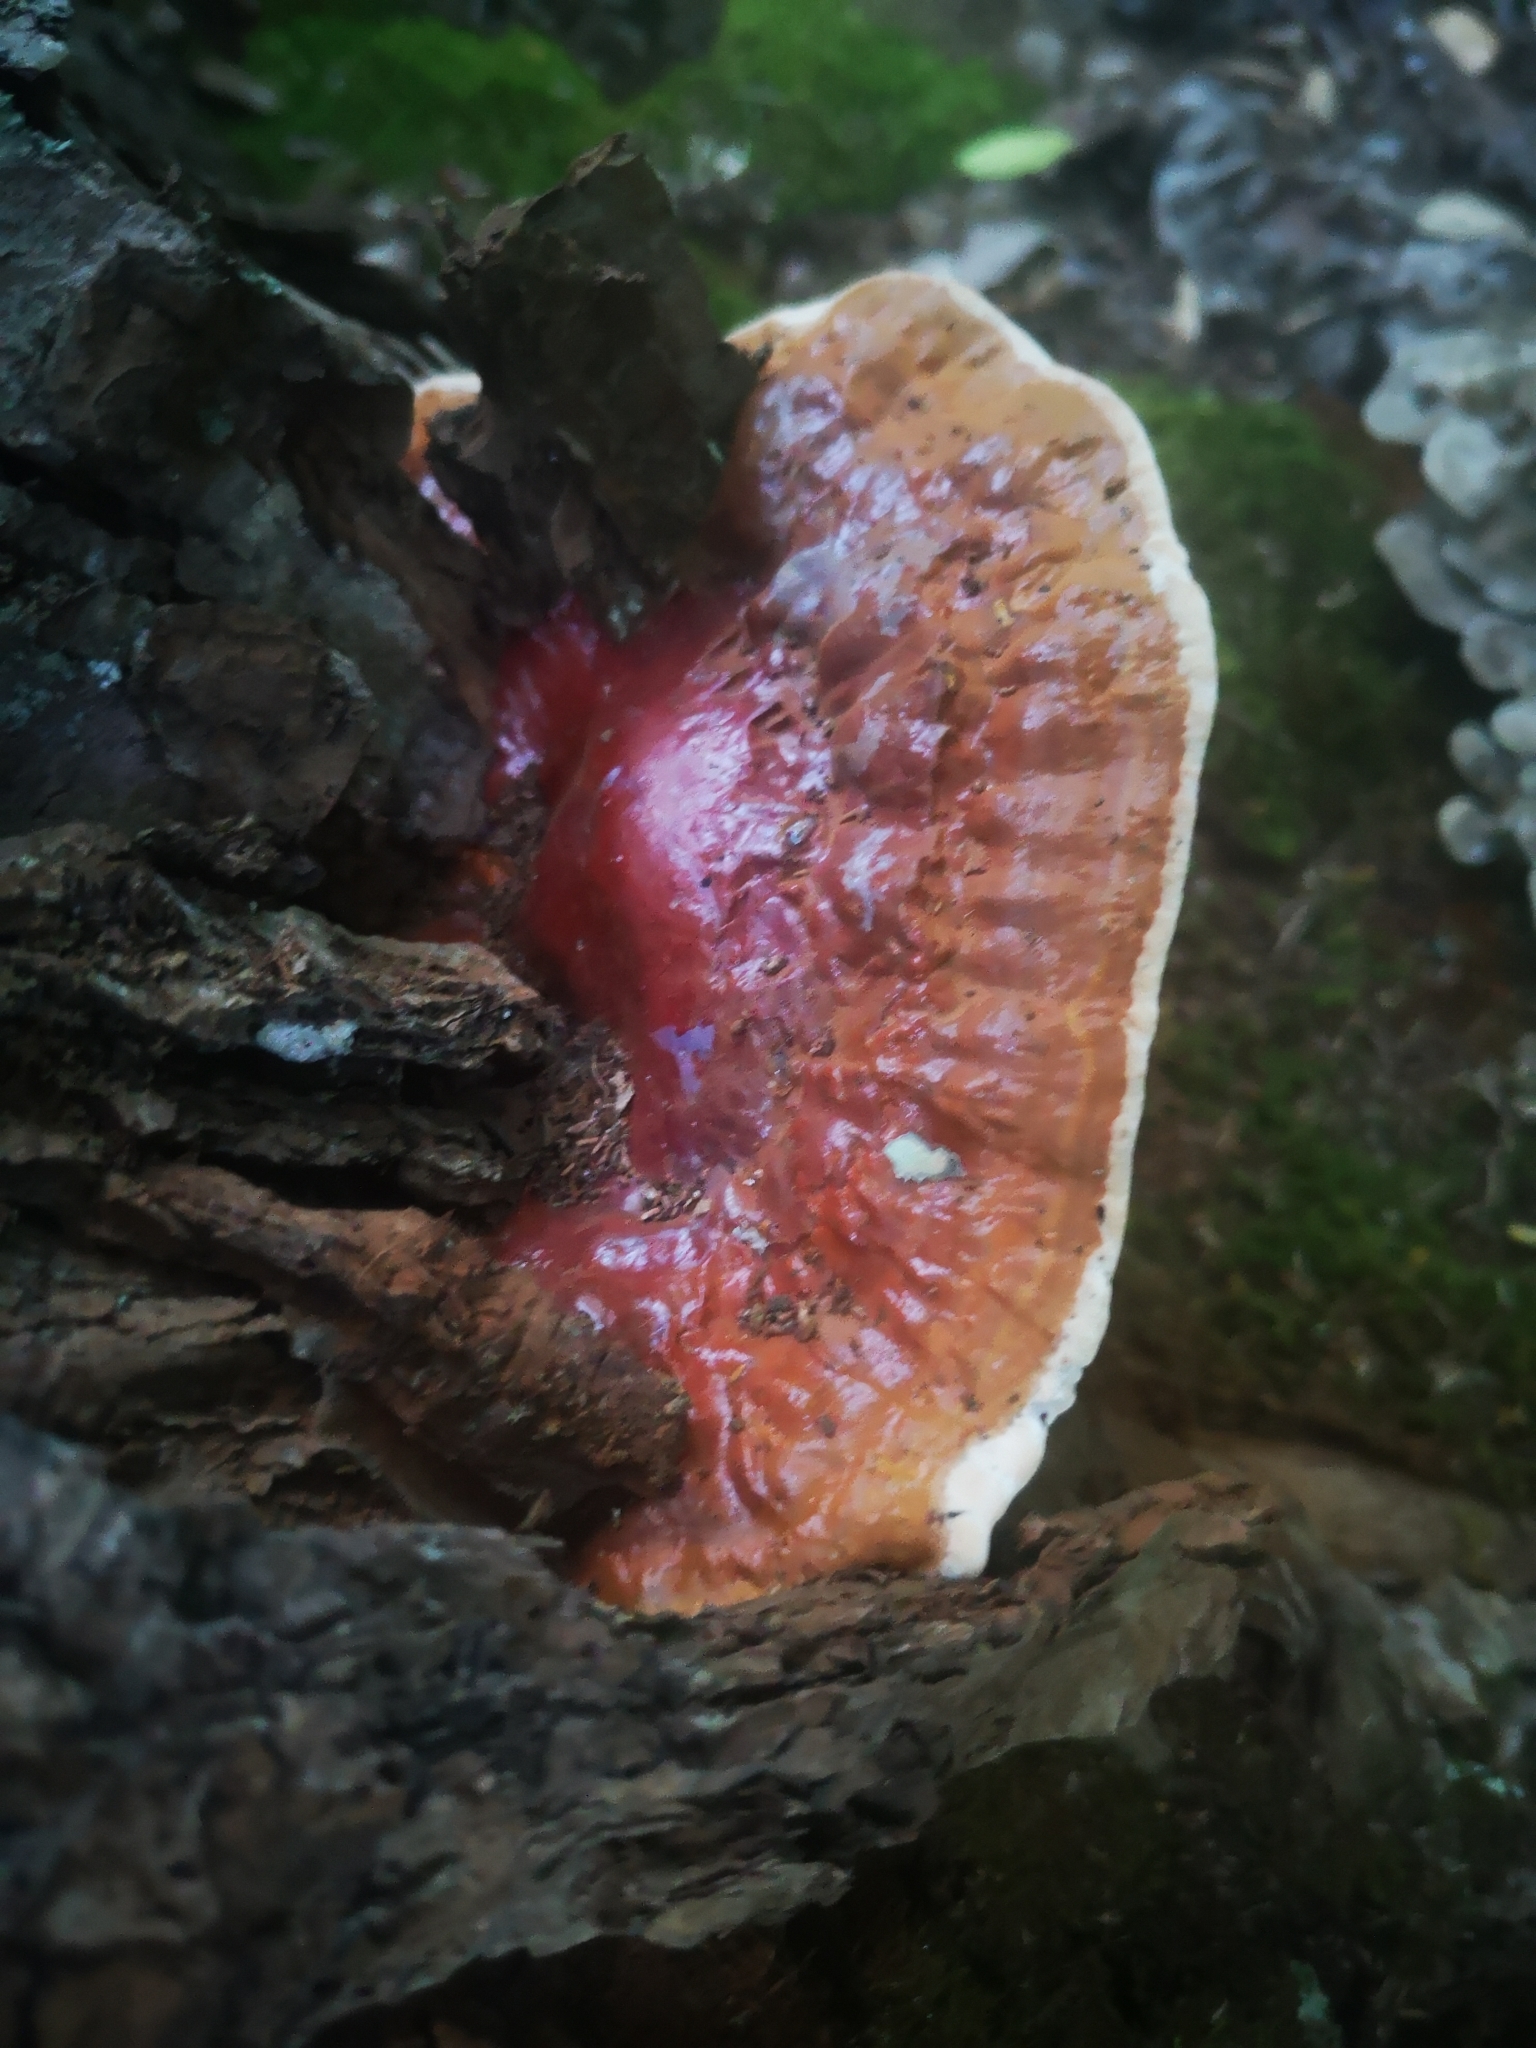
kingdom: Fungi
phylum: Basidiomycota
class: Agaricomycetes
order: Polyporales
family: Polyporaceae
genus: Ganoderma
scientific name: Ganoderma resinaceum
